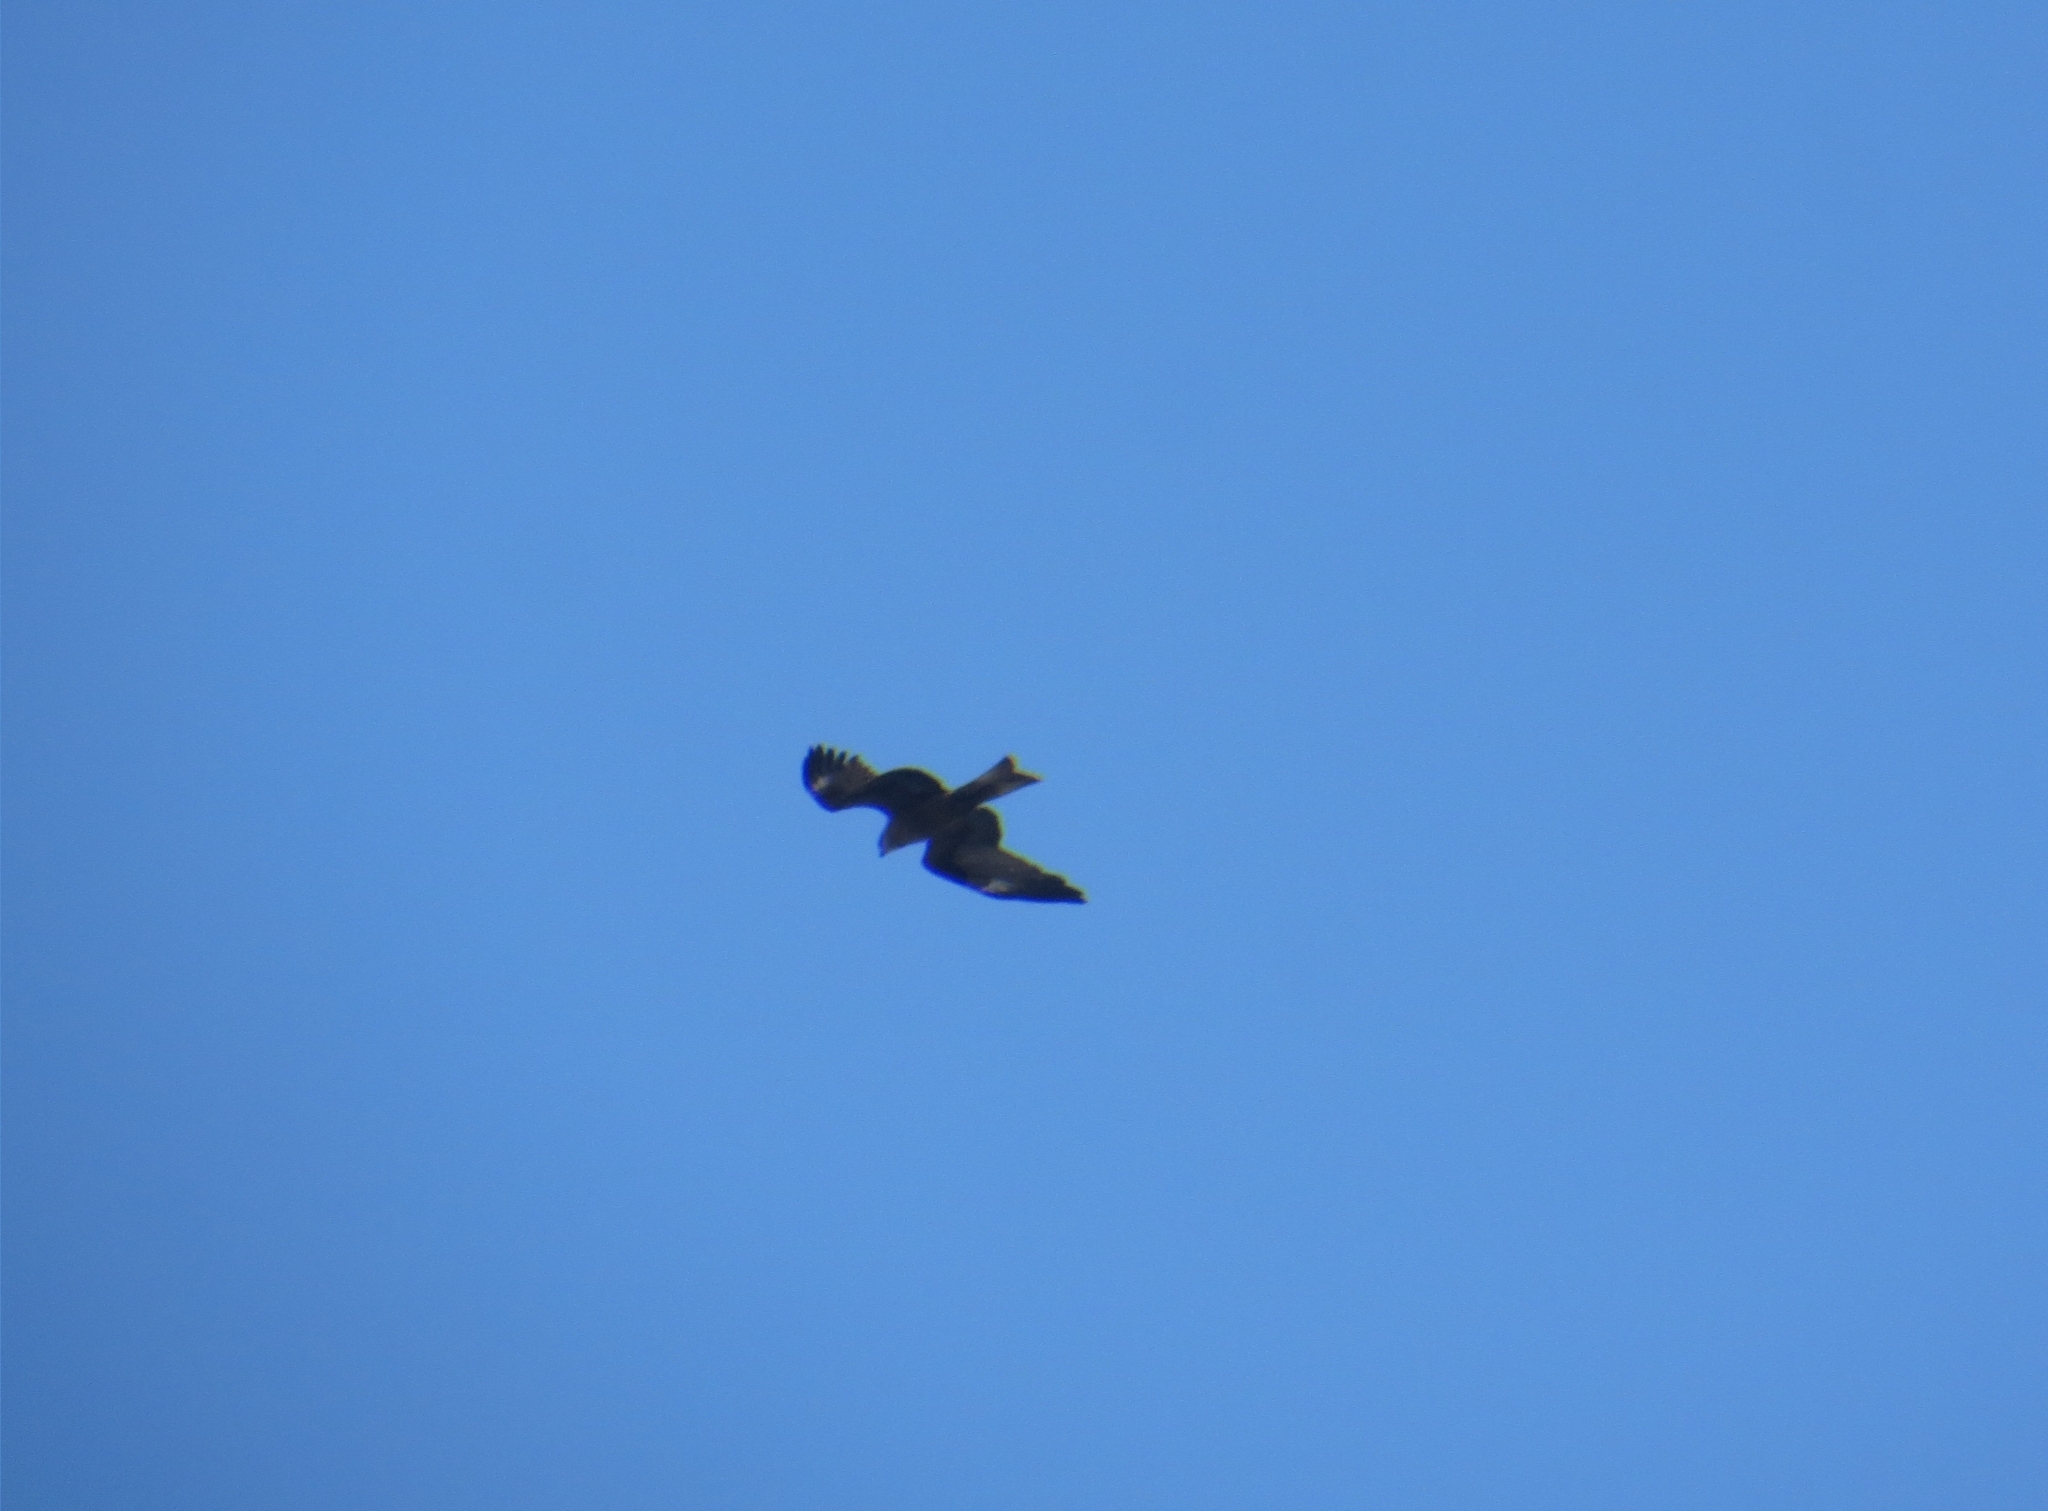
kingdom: Animalia
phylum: Chordata
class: Aves
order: Accipitriformes
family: Accipitridae
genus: Milvus
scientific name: Milvus migrans
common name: Black kite
